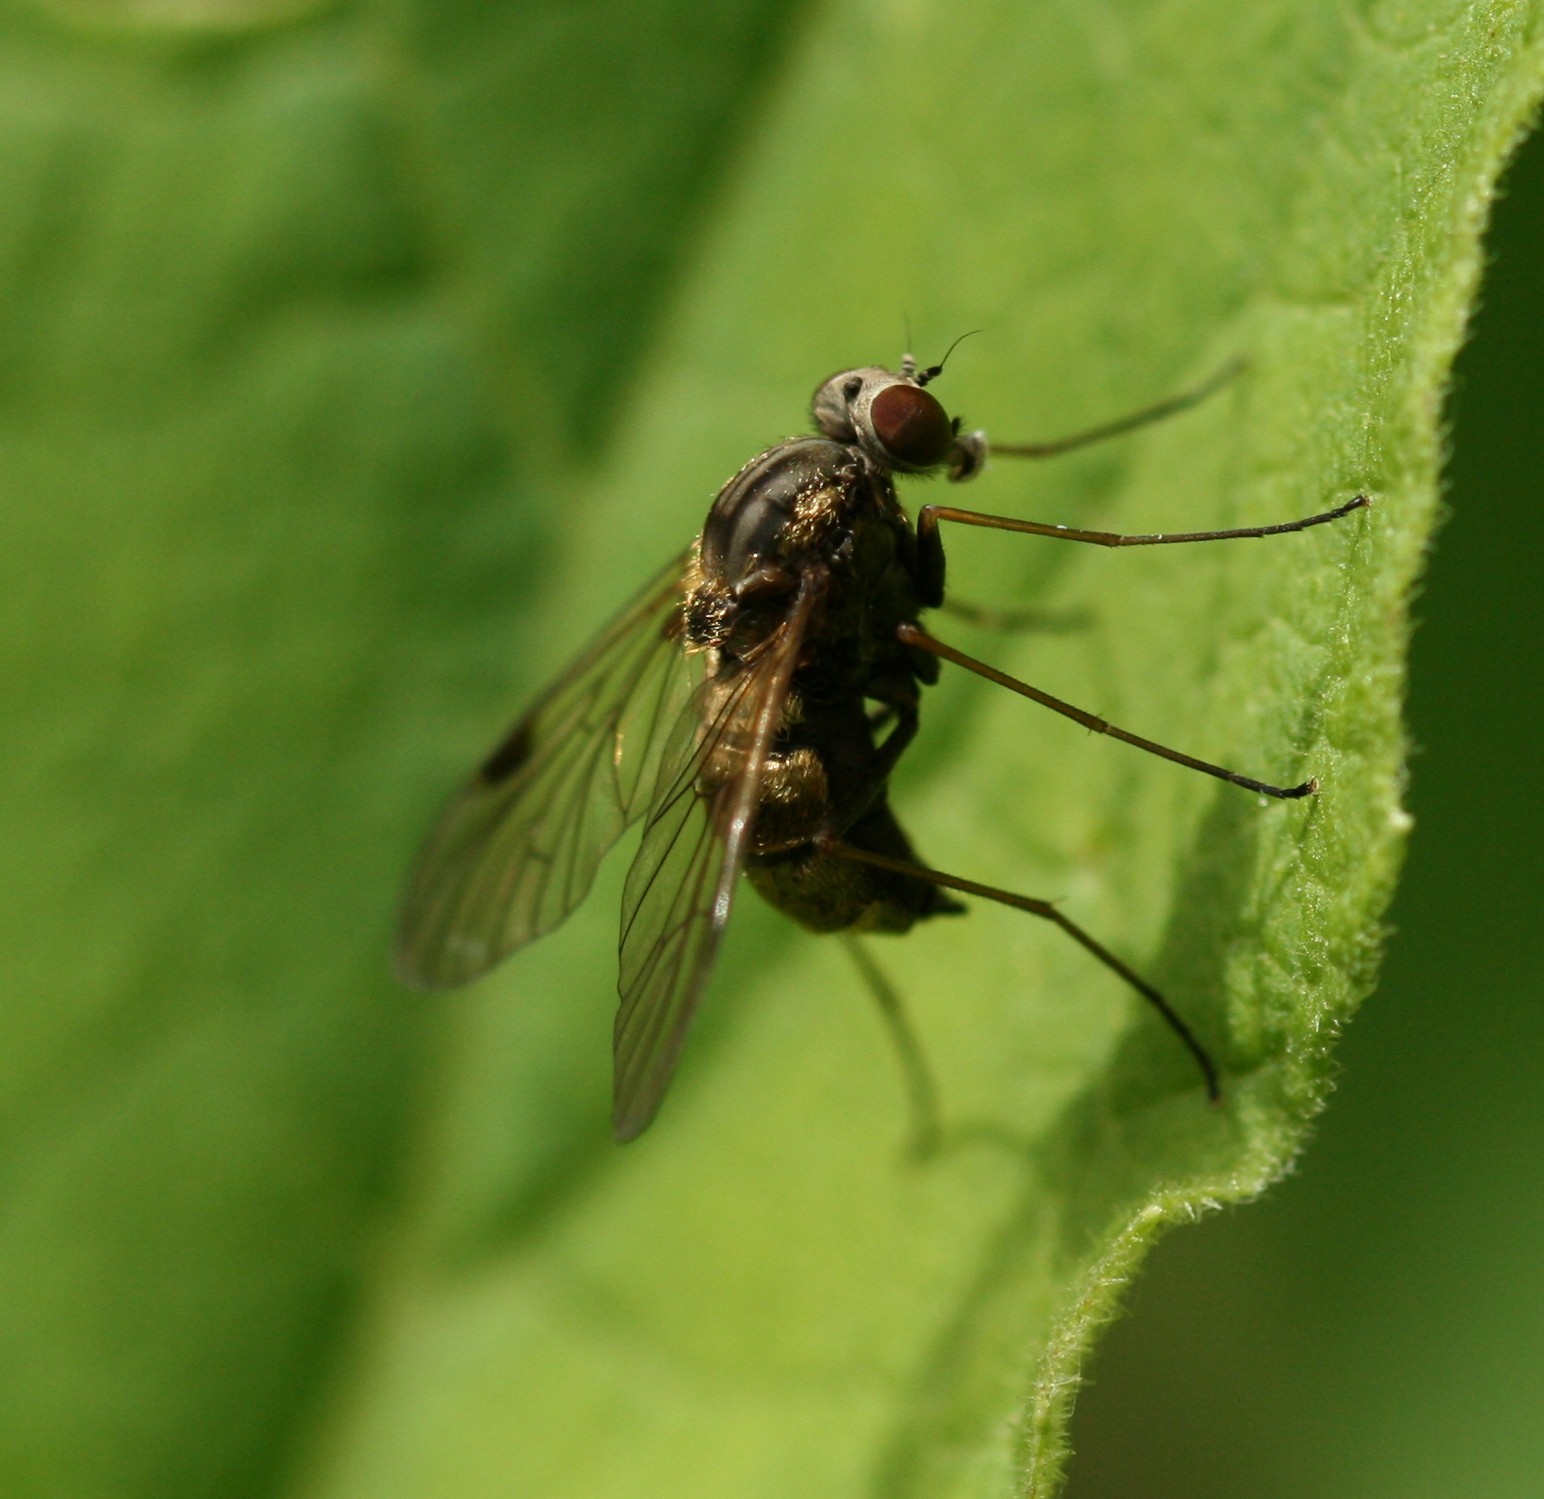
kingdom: Animalia
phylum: Arthropoda
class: Insecta
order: Diptera
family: Rhagionidae
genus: Chrysopilus
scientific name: Chrysopilus cristatus
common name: Black snipefly
